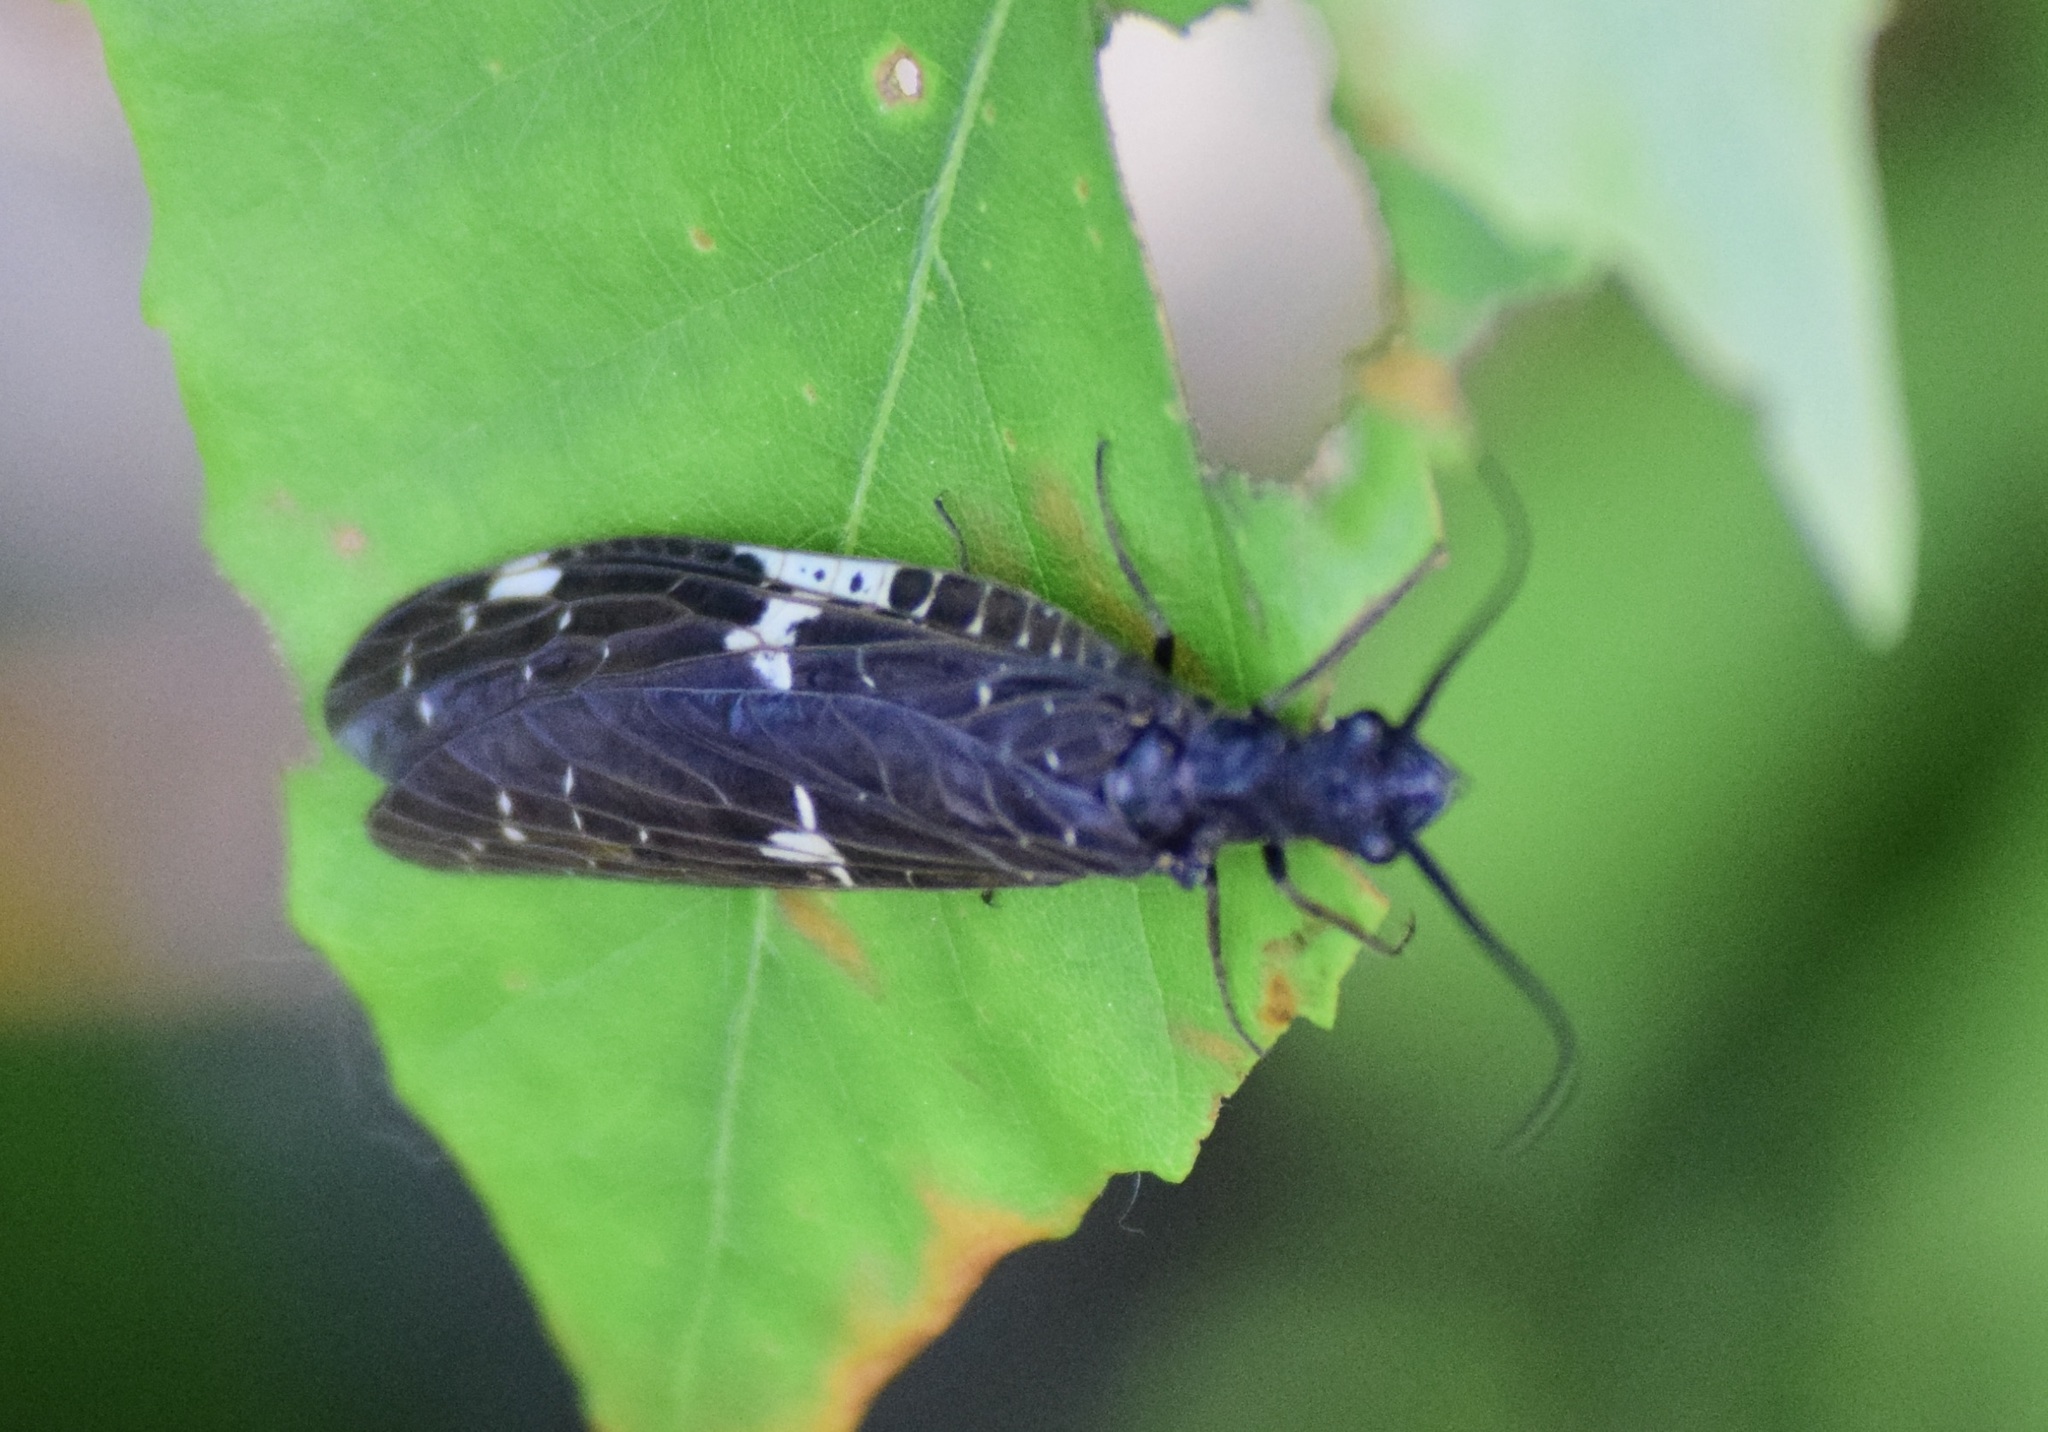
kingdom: Animalia
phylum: Arthropoda
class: Insecta
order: Megaloptera
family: Corydalidae
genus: Nigronia
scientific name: Nigronia serricornis
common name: Serrate dark fishfly
